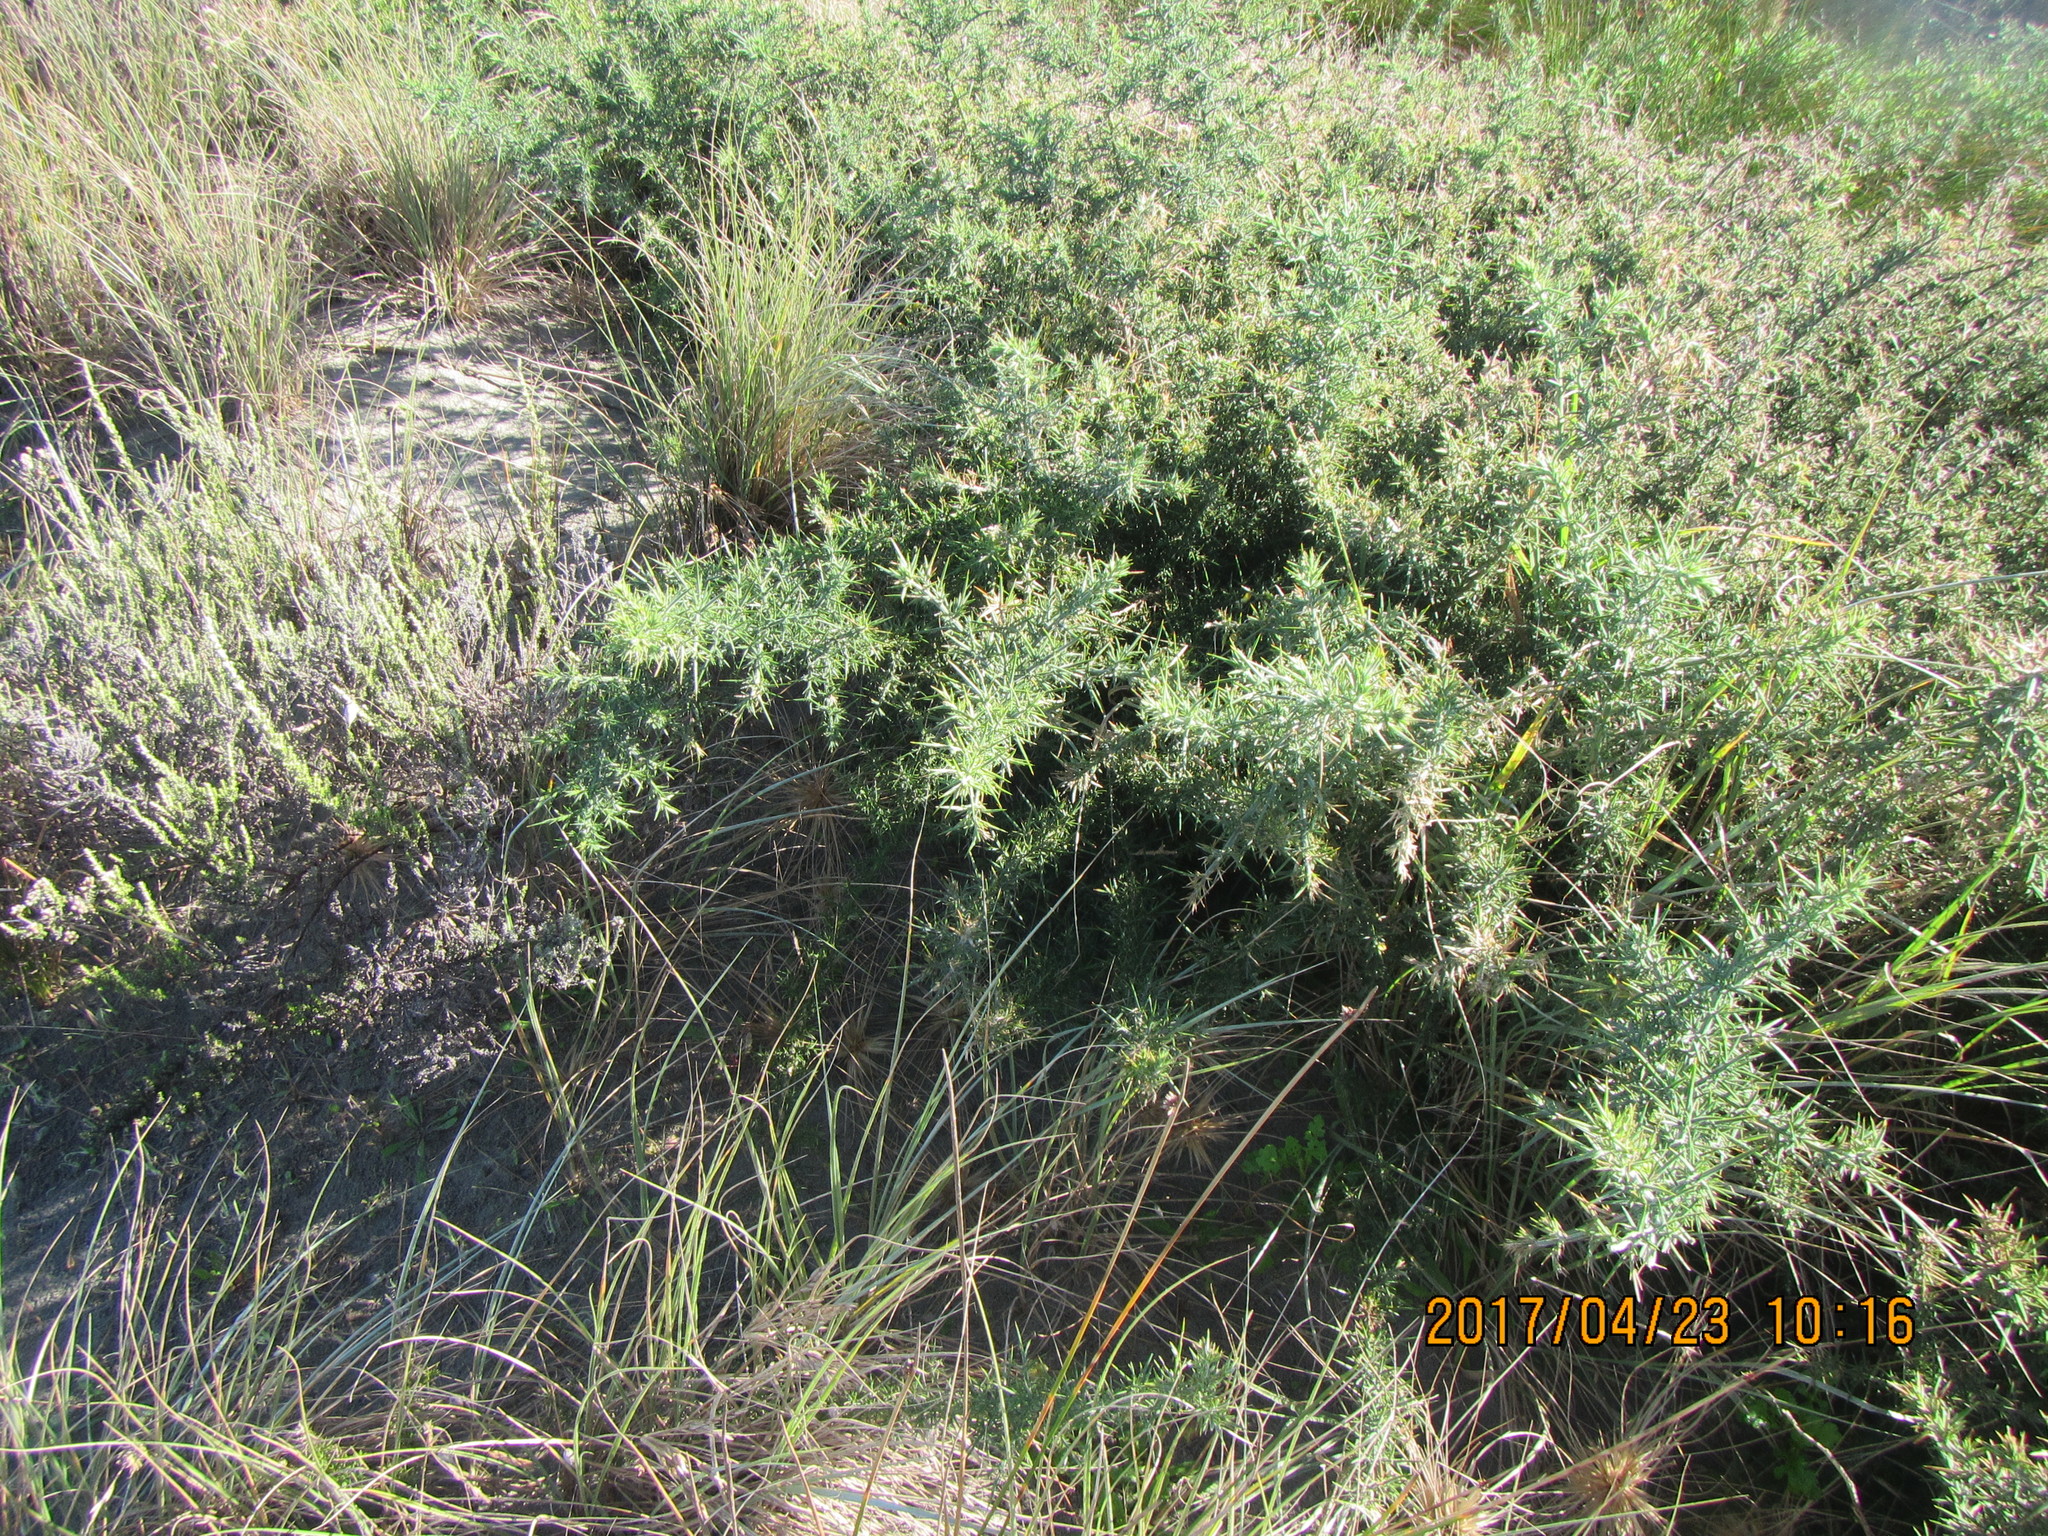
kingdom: Plantae
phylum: Tracheophyta
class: Magnoliopsida
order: Fabales
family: Fabaceae
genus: Ulex
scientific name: Ulex europaeus
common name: Common gorse
